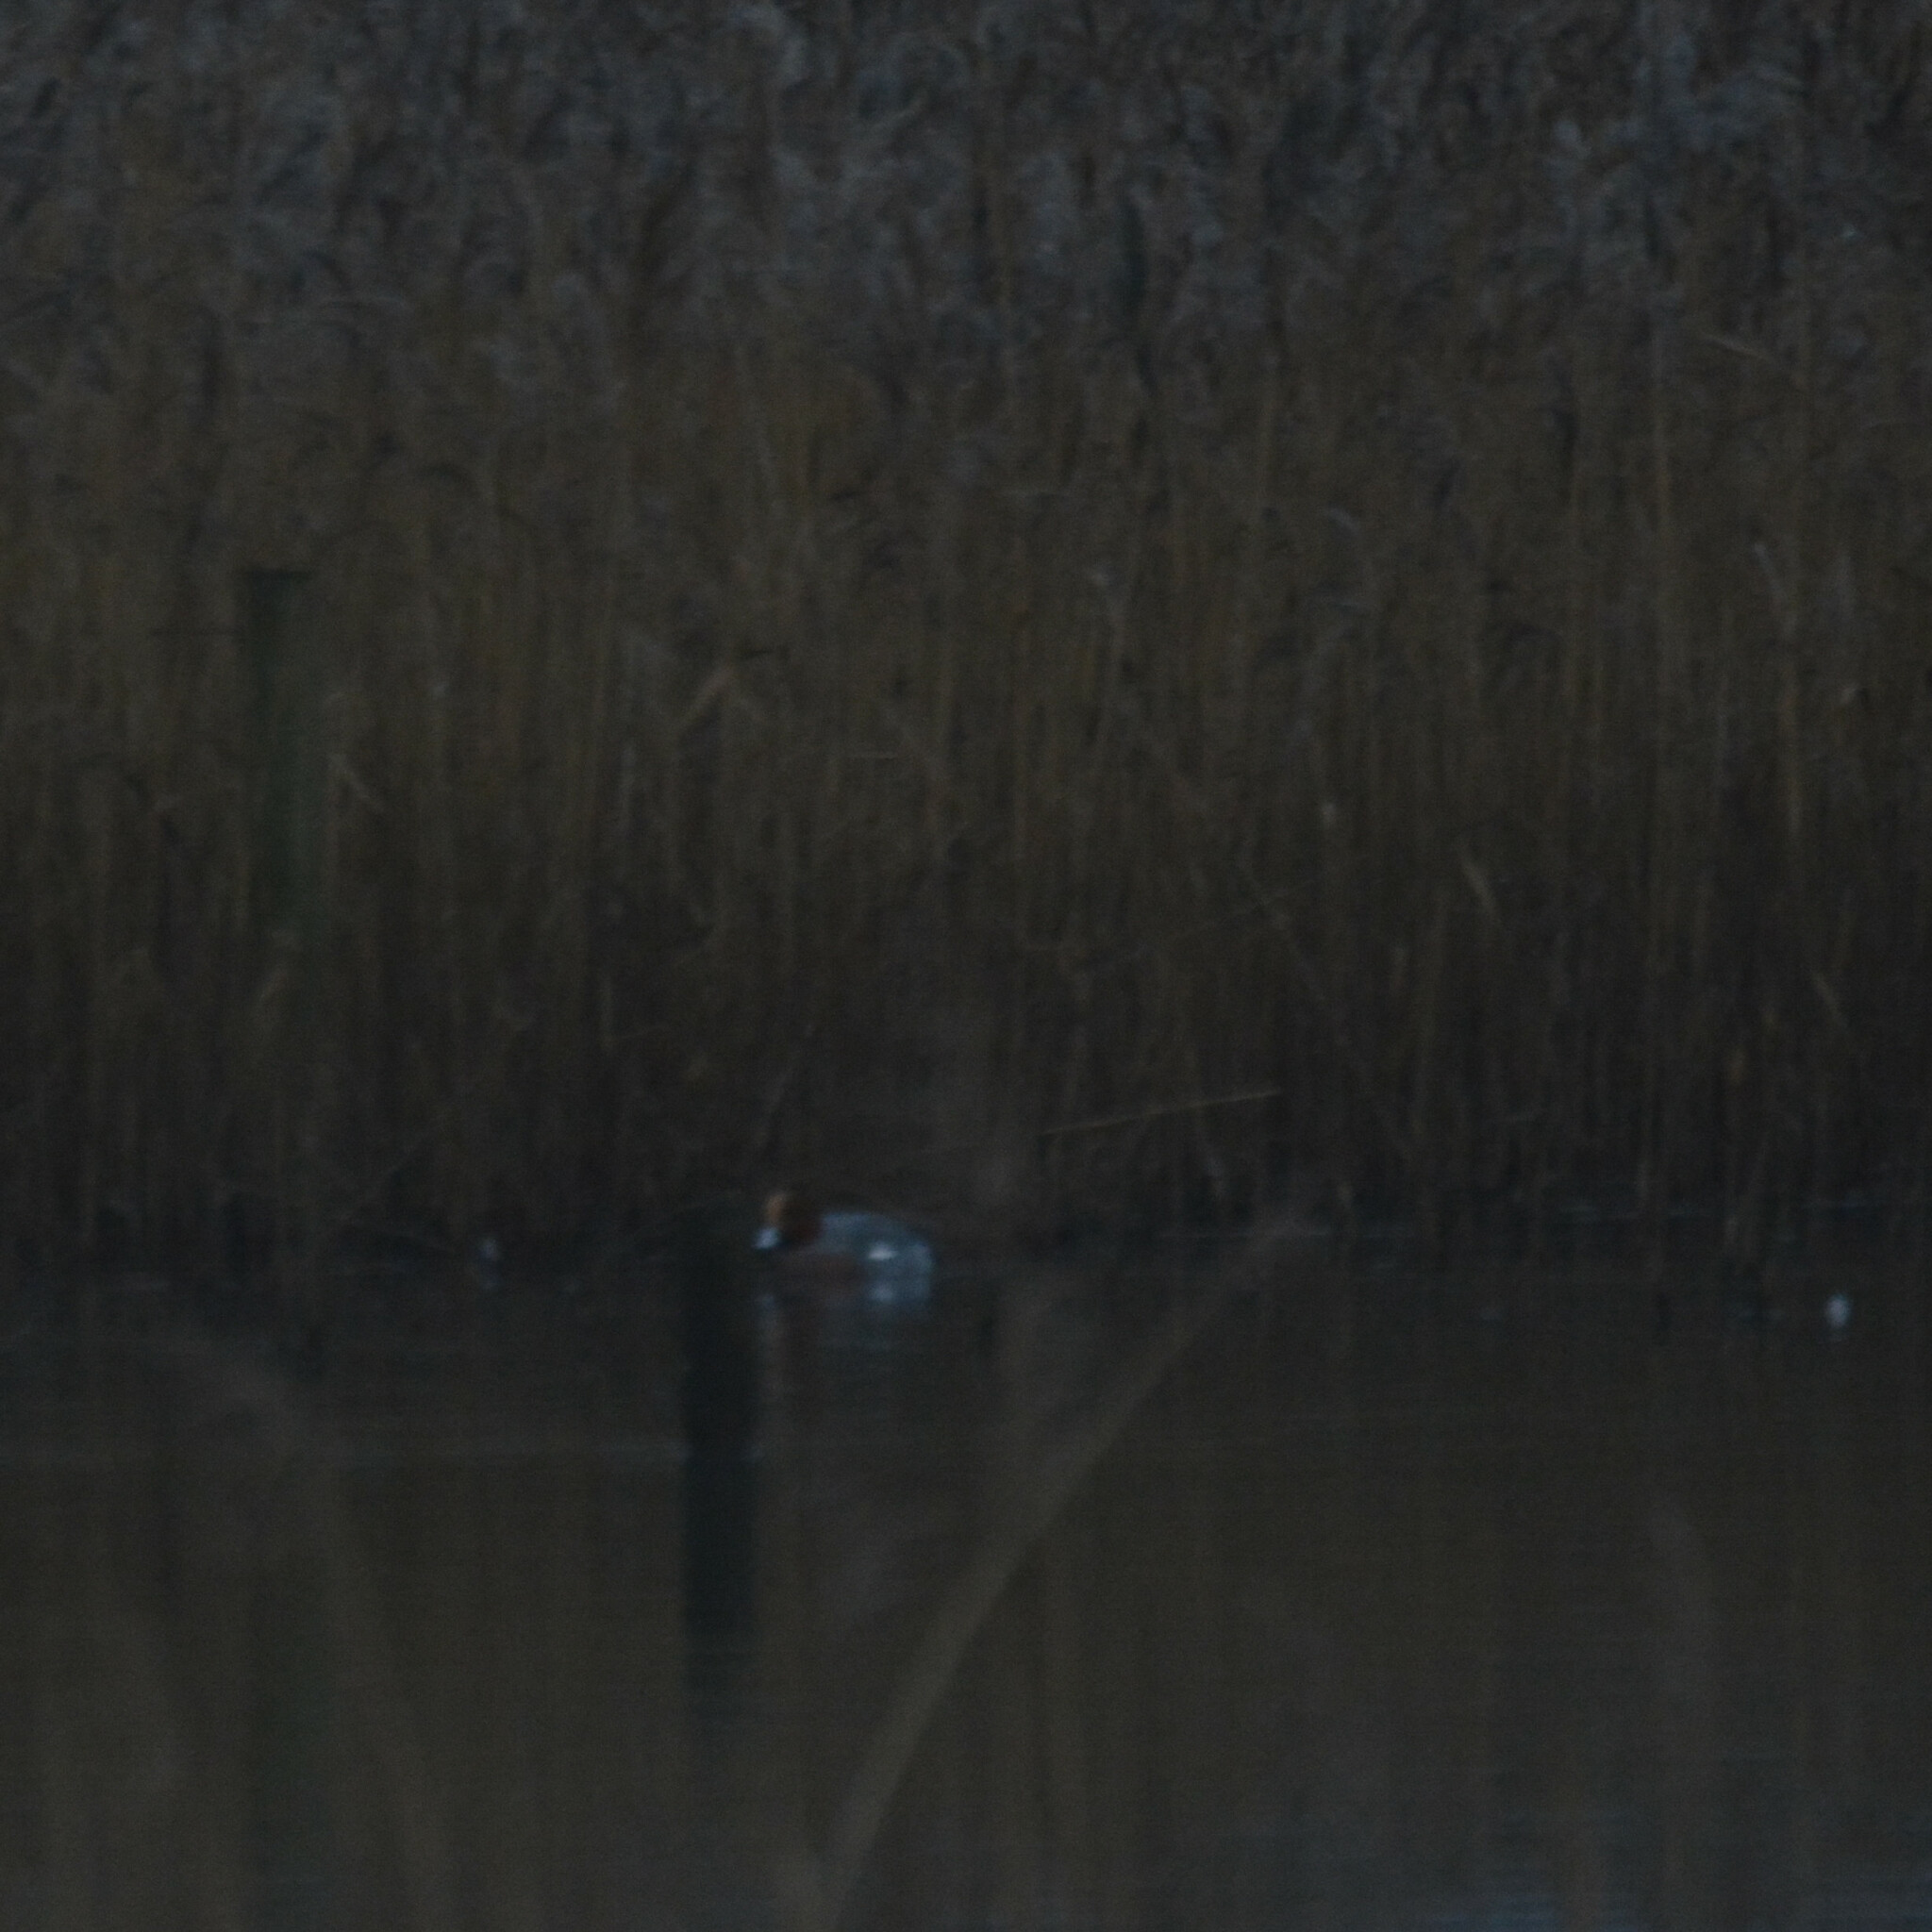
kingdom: Animalia
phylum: Chordata
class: Aves
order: Anseriformes
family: Anatidae
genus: Mareca
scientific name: Mareca penelope
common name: Eurasian wigeon
